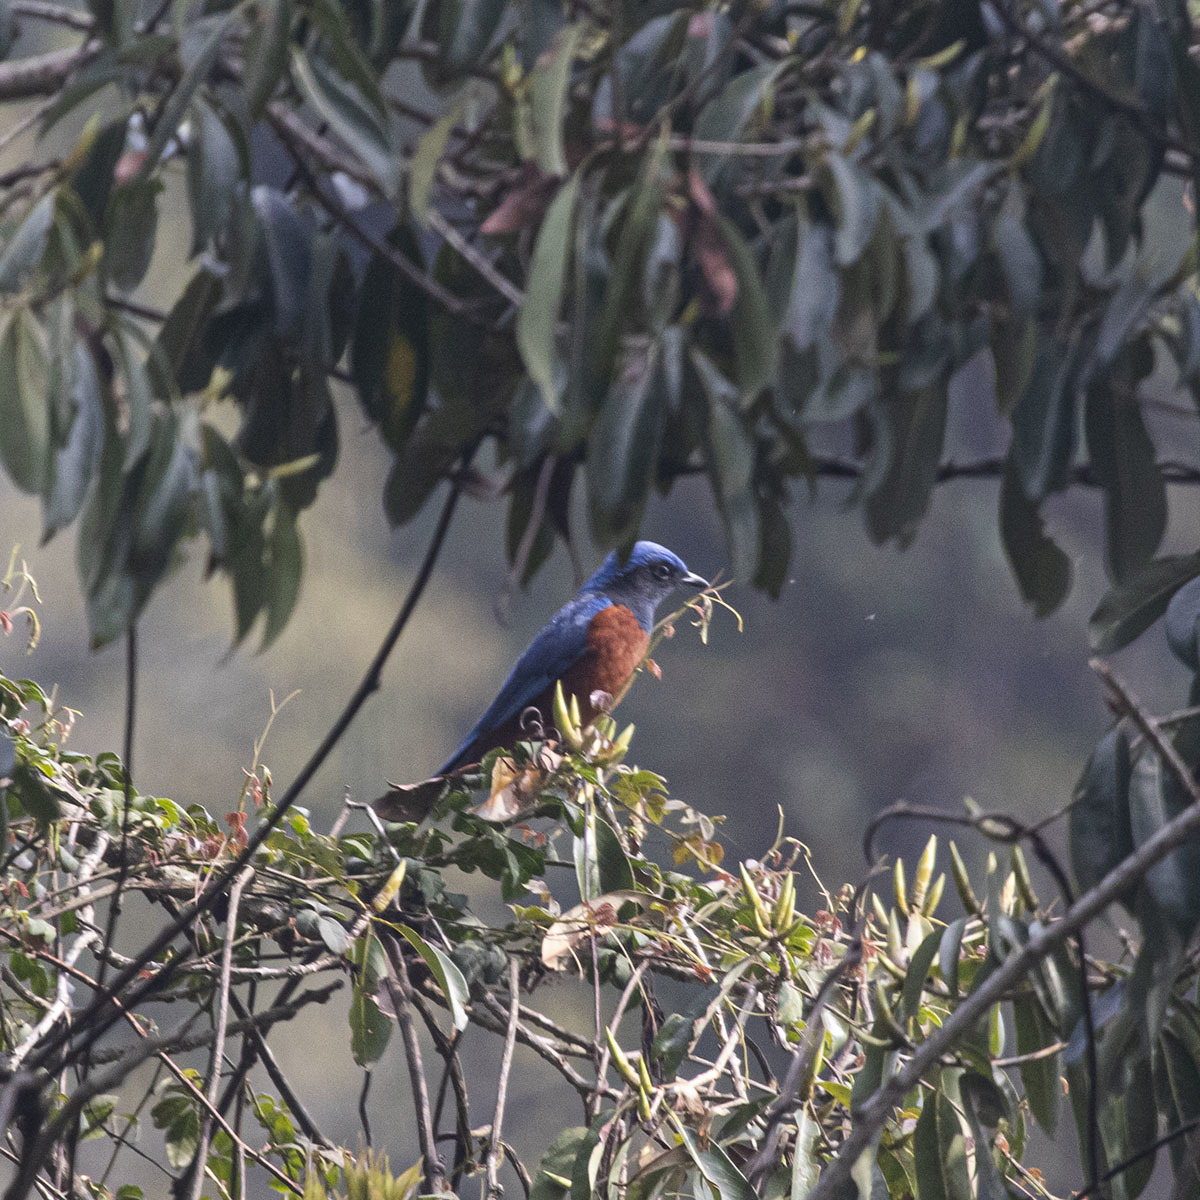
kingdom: Animalia
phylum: Chordata
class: Aves
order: Passeriformes
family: Muscicapidae
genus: Monticola
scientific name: Monticola rufiventris
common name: Chestnut-bellied rock thrush
